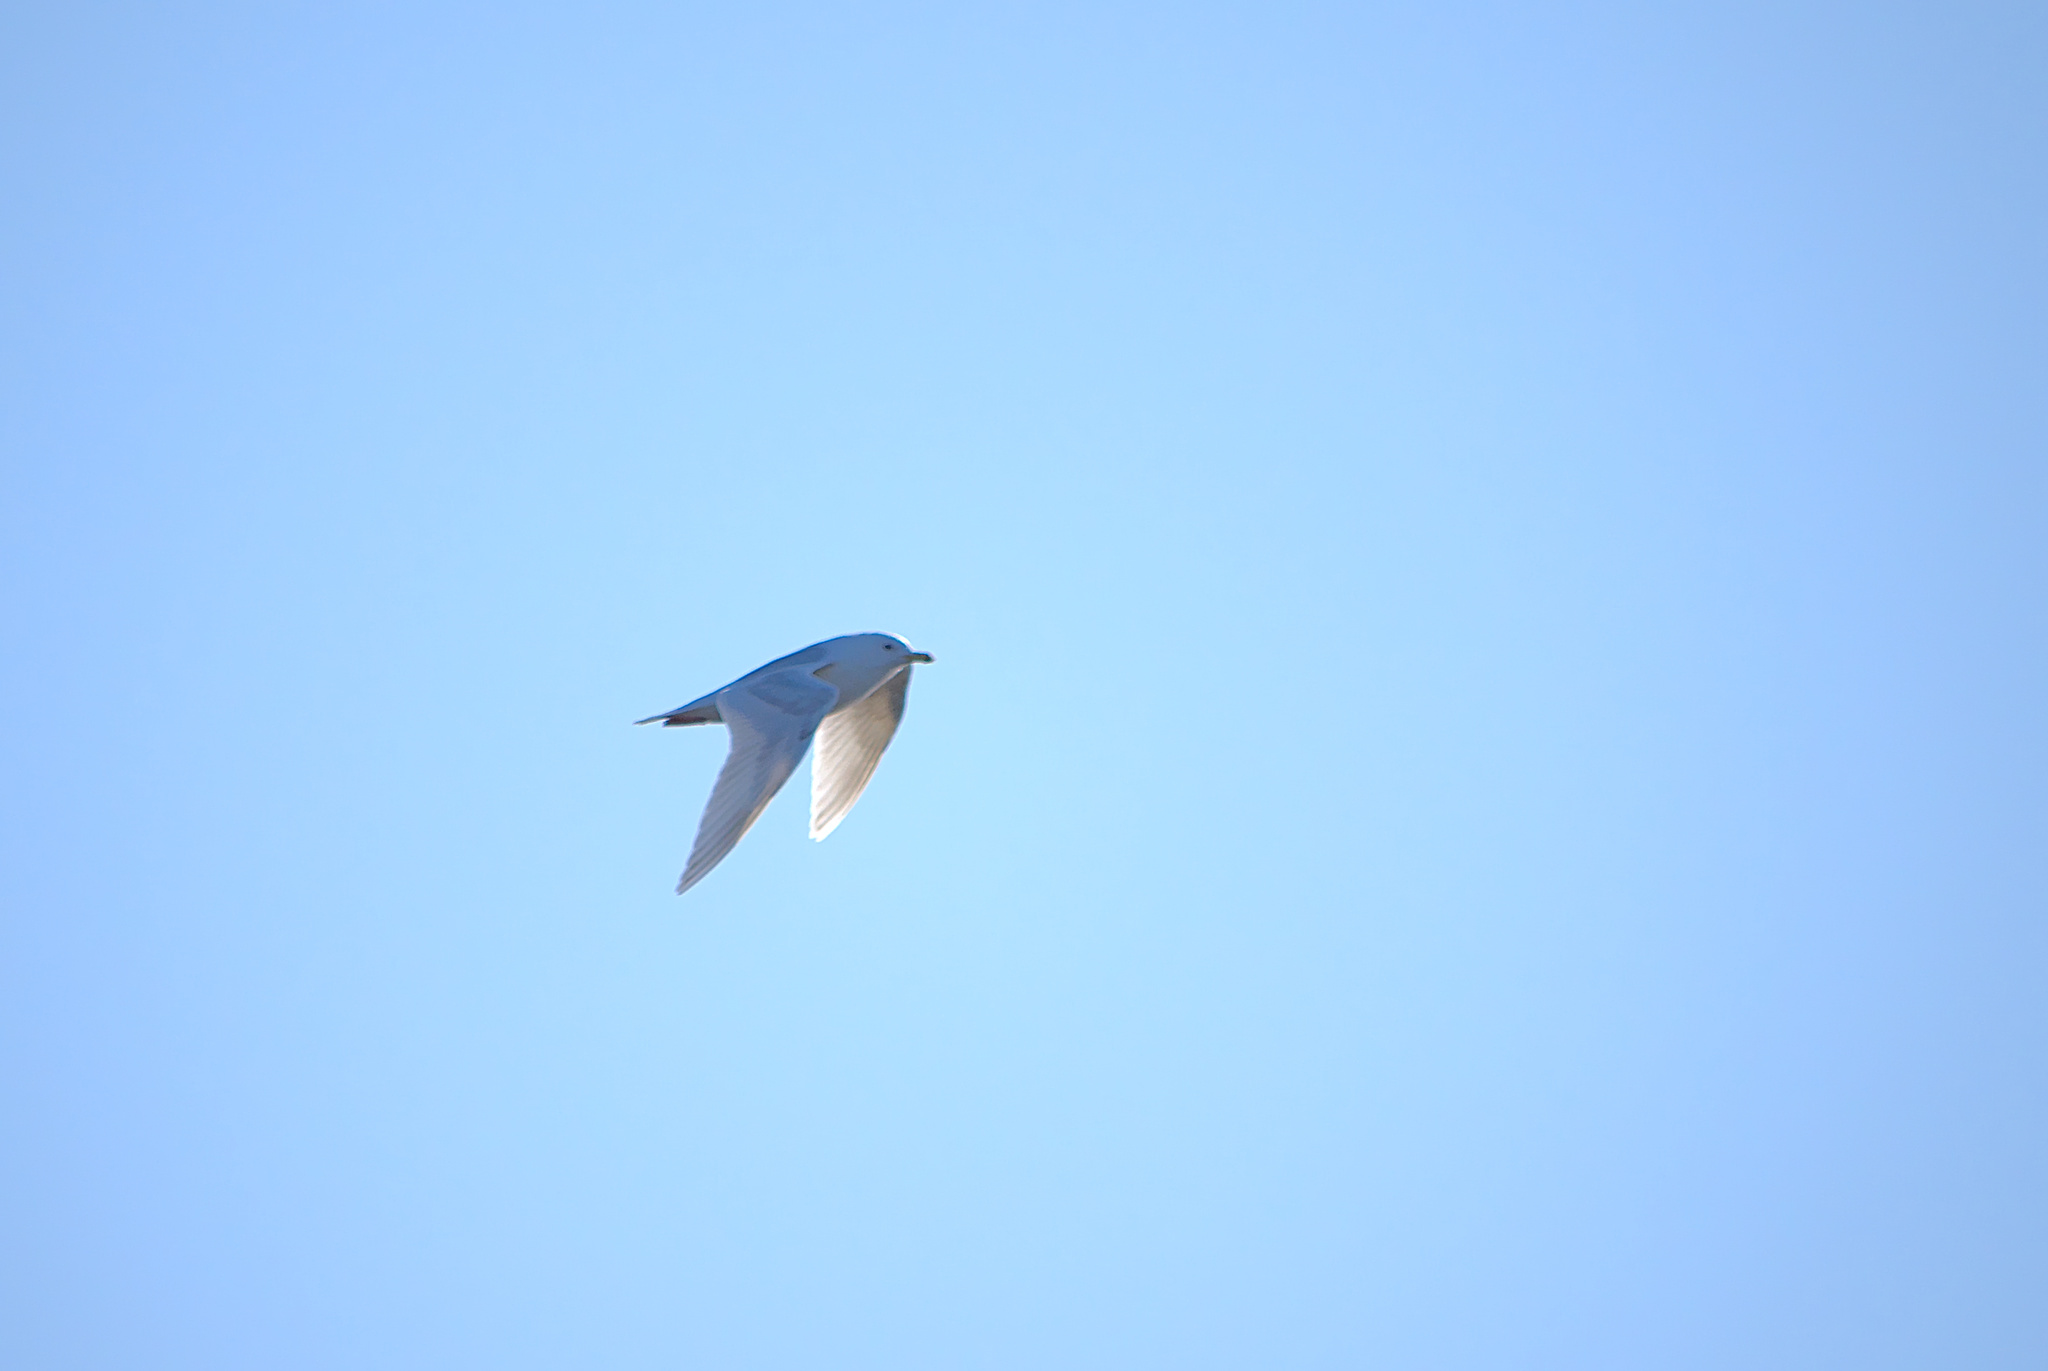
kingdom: Animalia
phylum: Chordata
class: Aves
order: Charadriiformes
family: Laridae
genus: Larus
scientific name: Larus glaucoides
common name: Iceland gull
